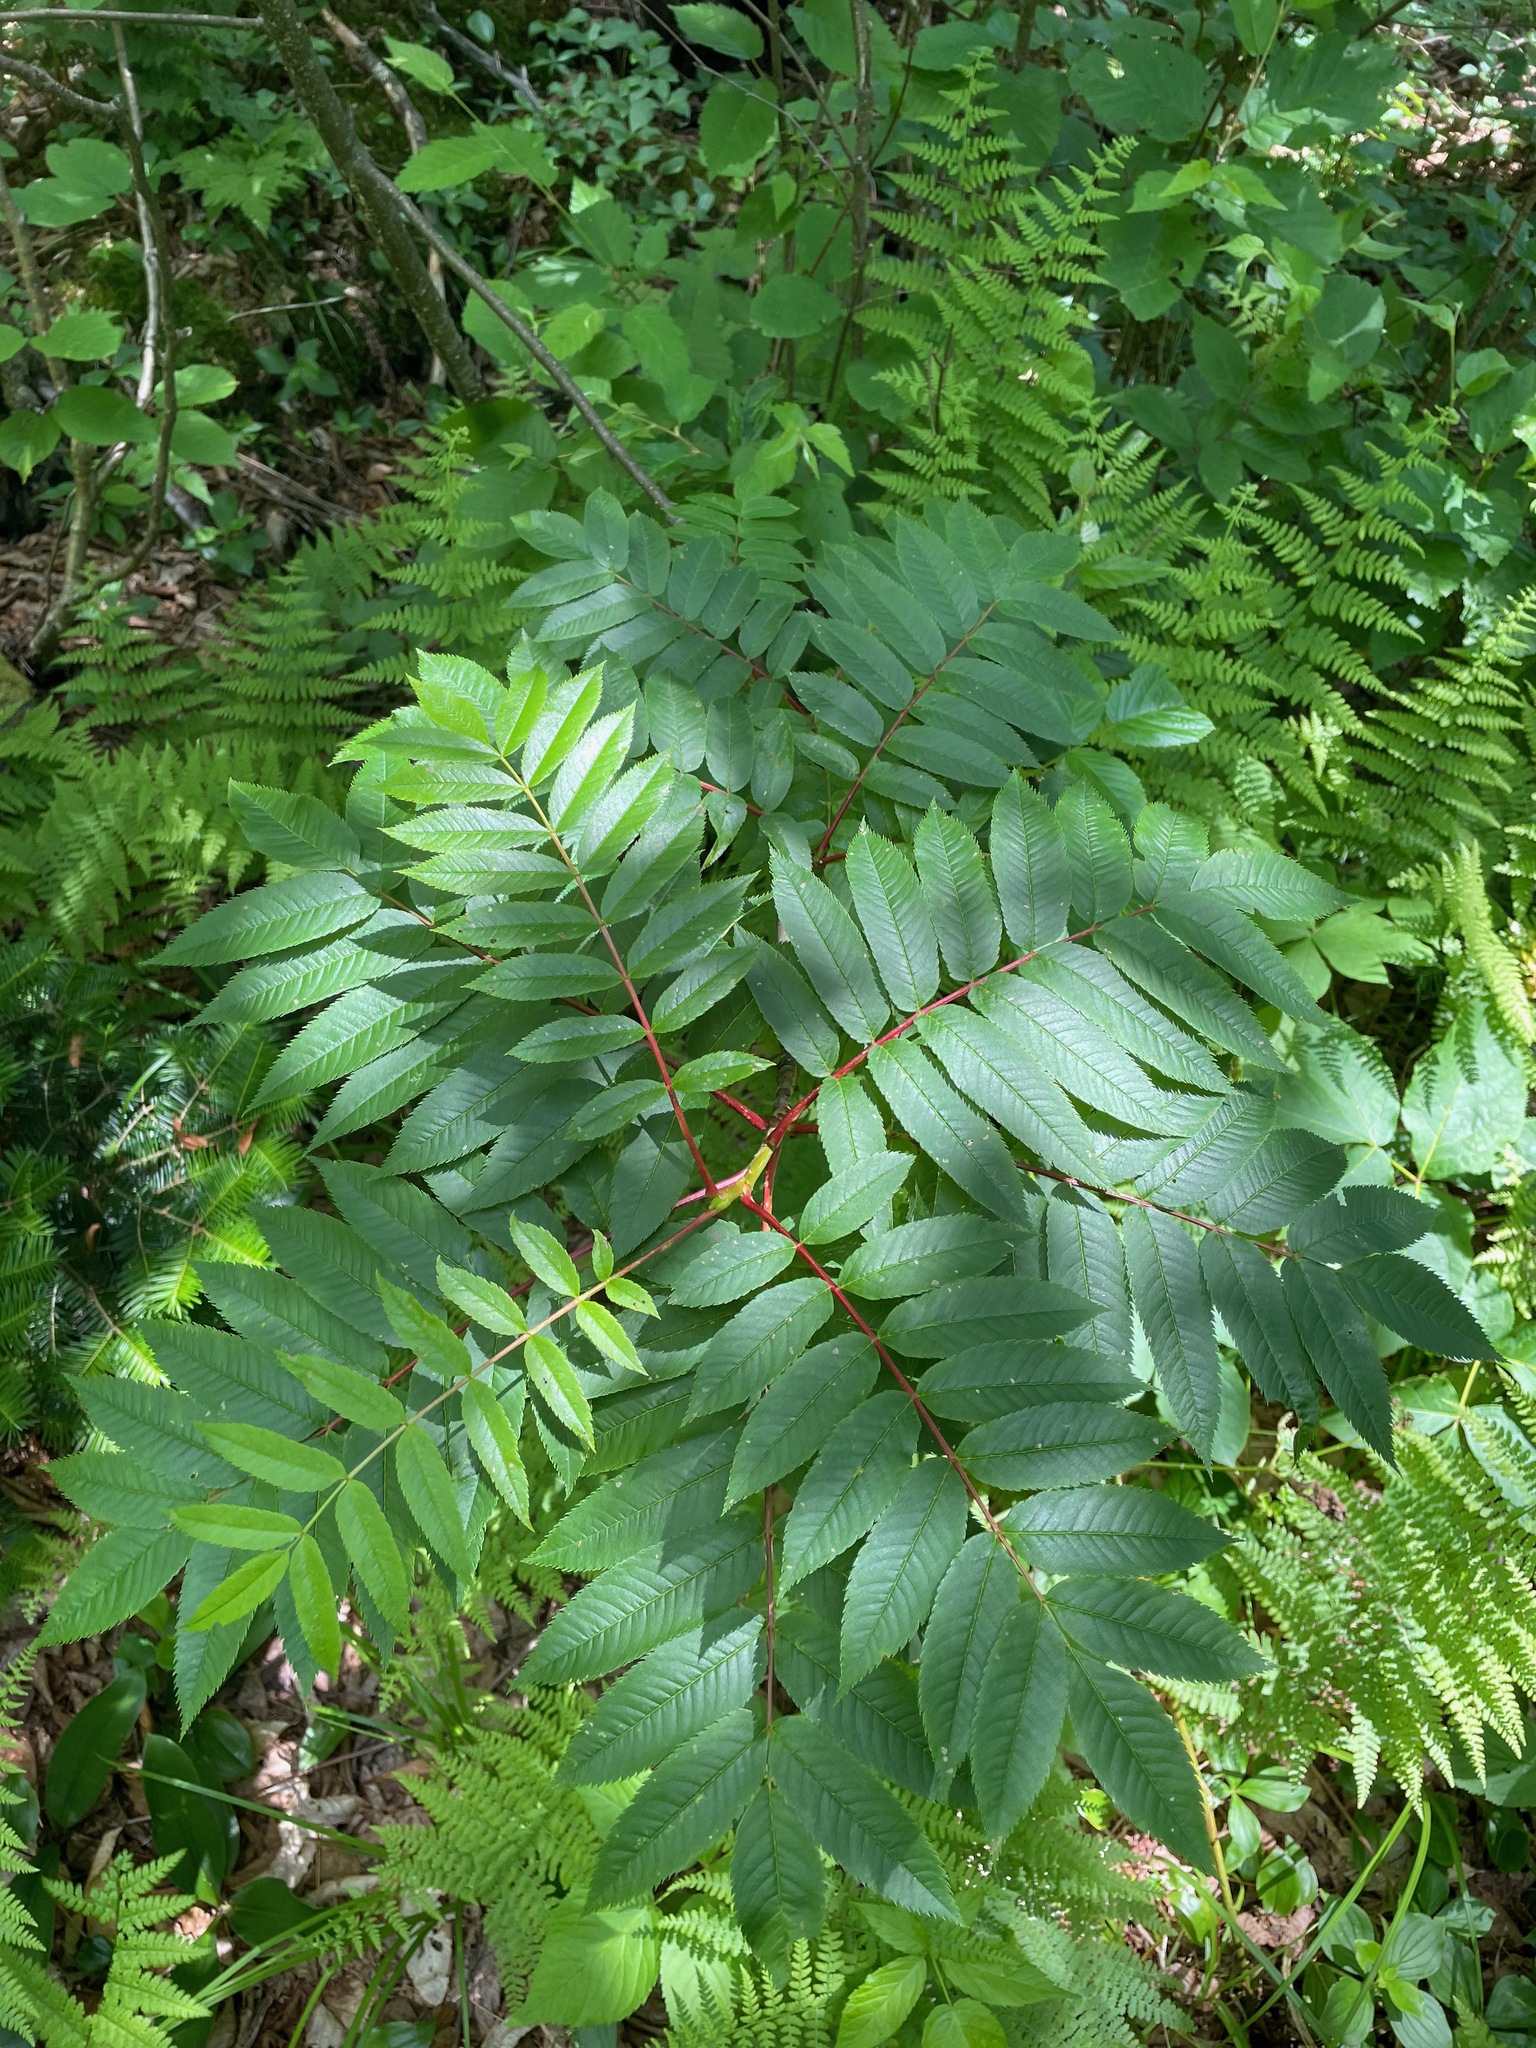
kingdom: Plantae
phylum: Tracheophyta
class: Magnoliopsida
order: Rosales
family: Rosaceae
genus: Sorbus
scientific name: Sorbus americana
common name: American mountain-ash
